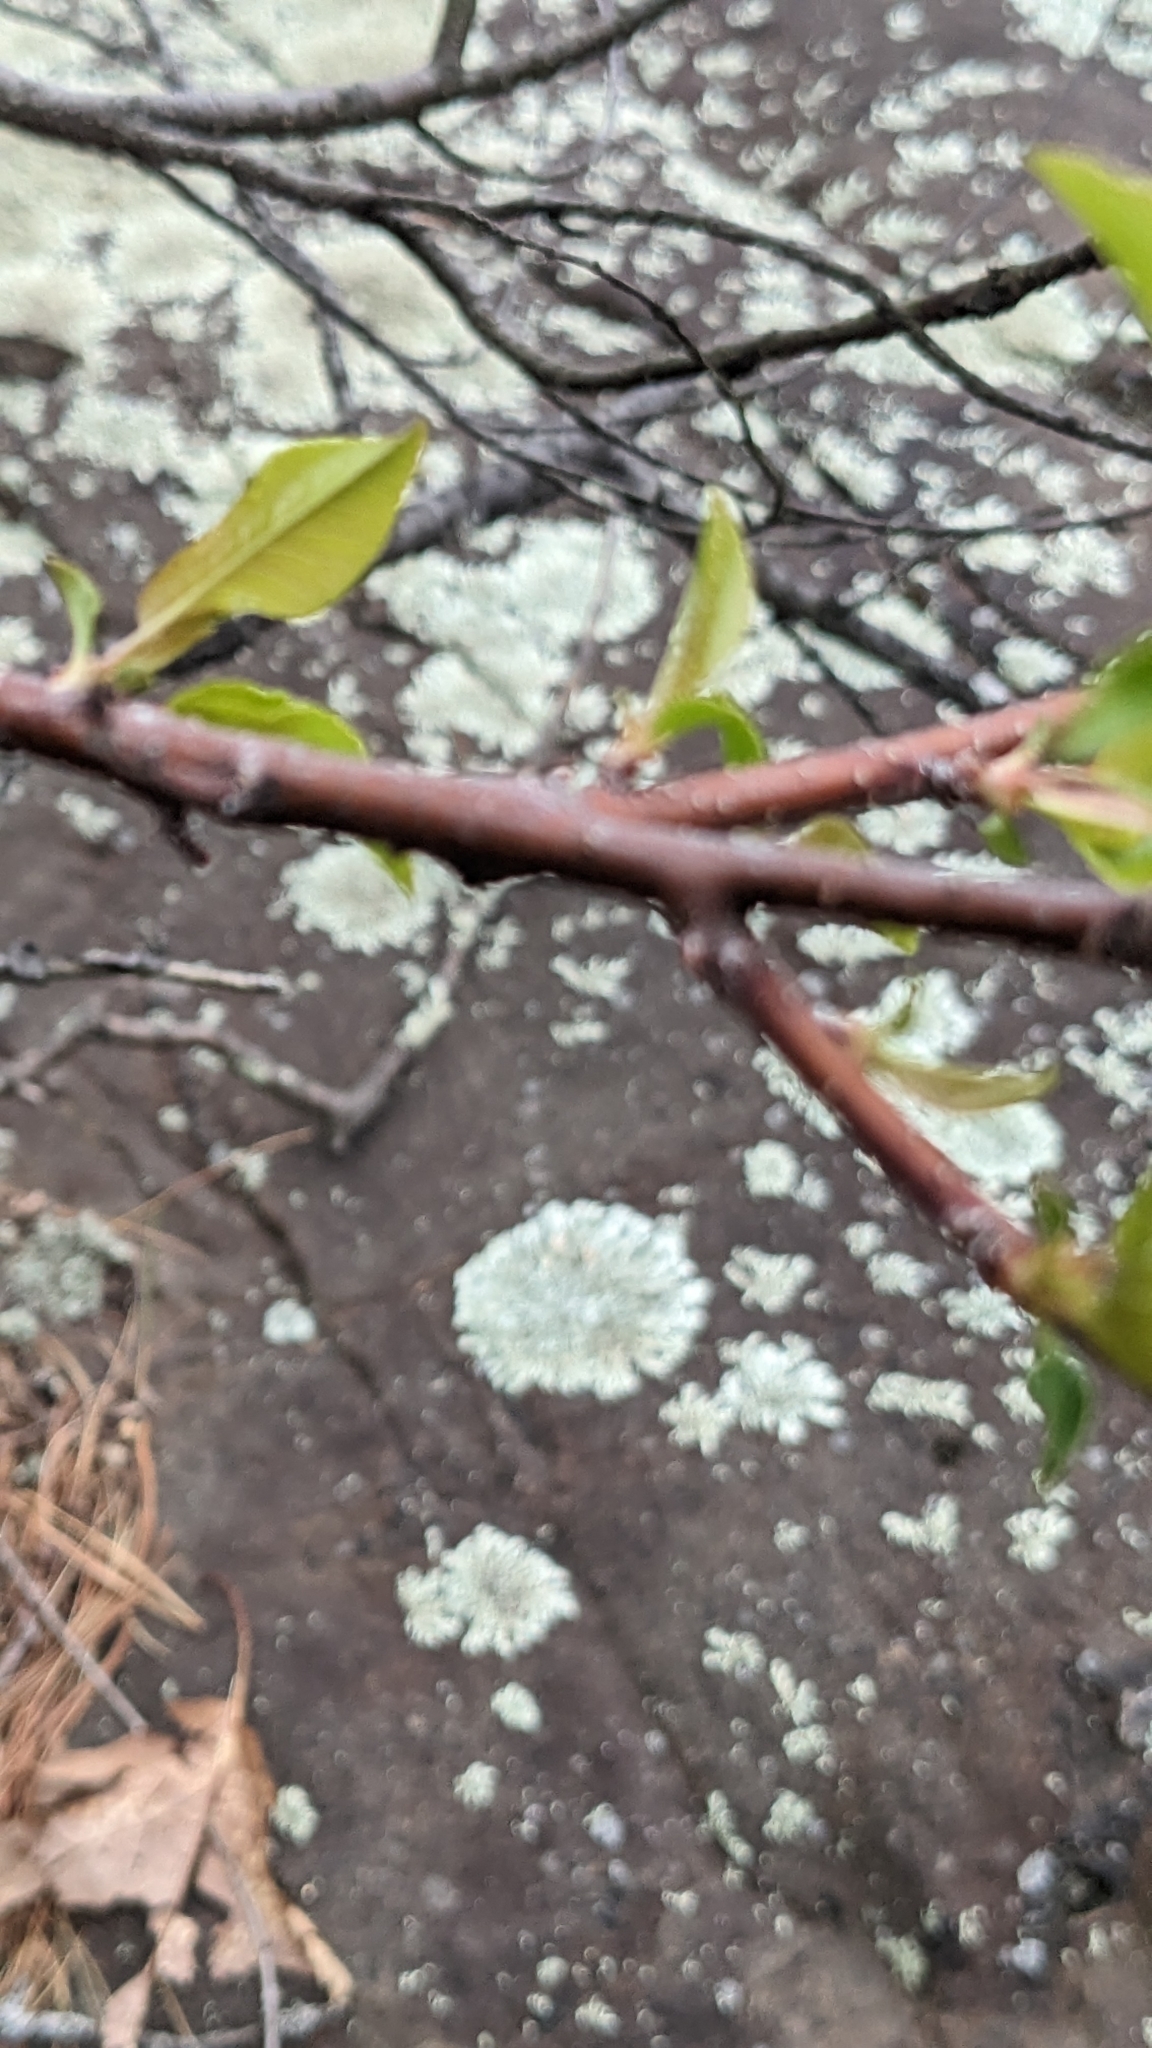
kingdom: Plantae
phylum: Tracheophyta
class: Magnoliopsida
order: Rosales
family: Rosaceae
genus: Prunus
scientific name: Prunus pensylvanica
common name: Pin cherry
